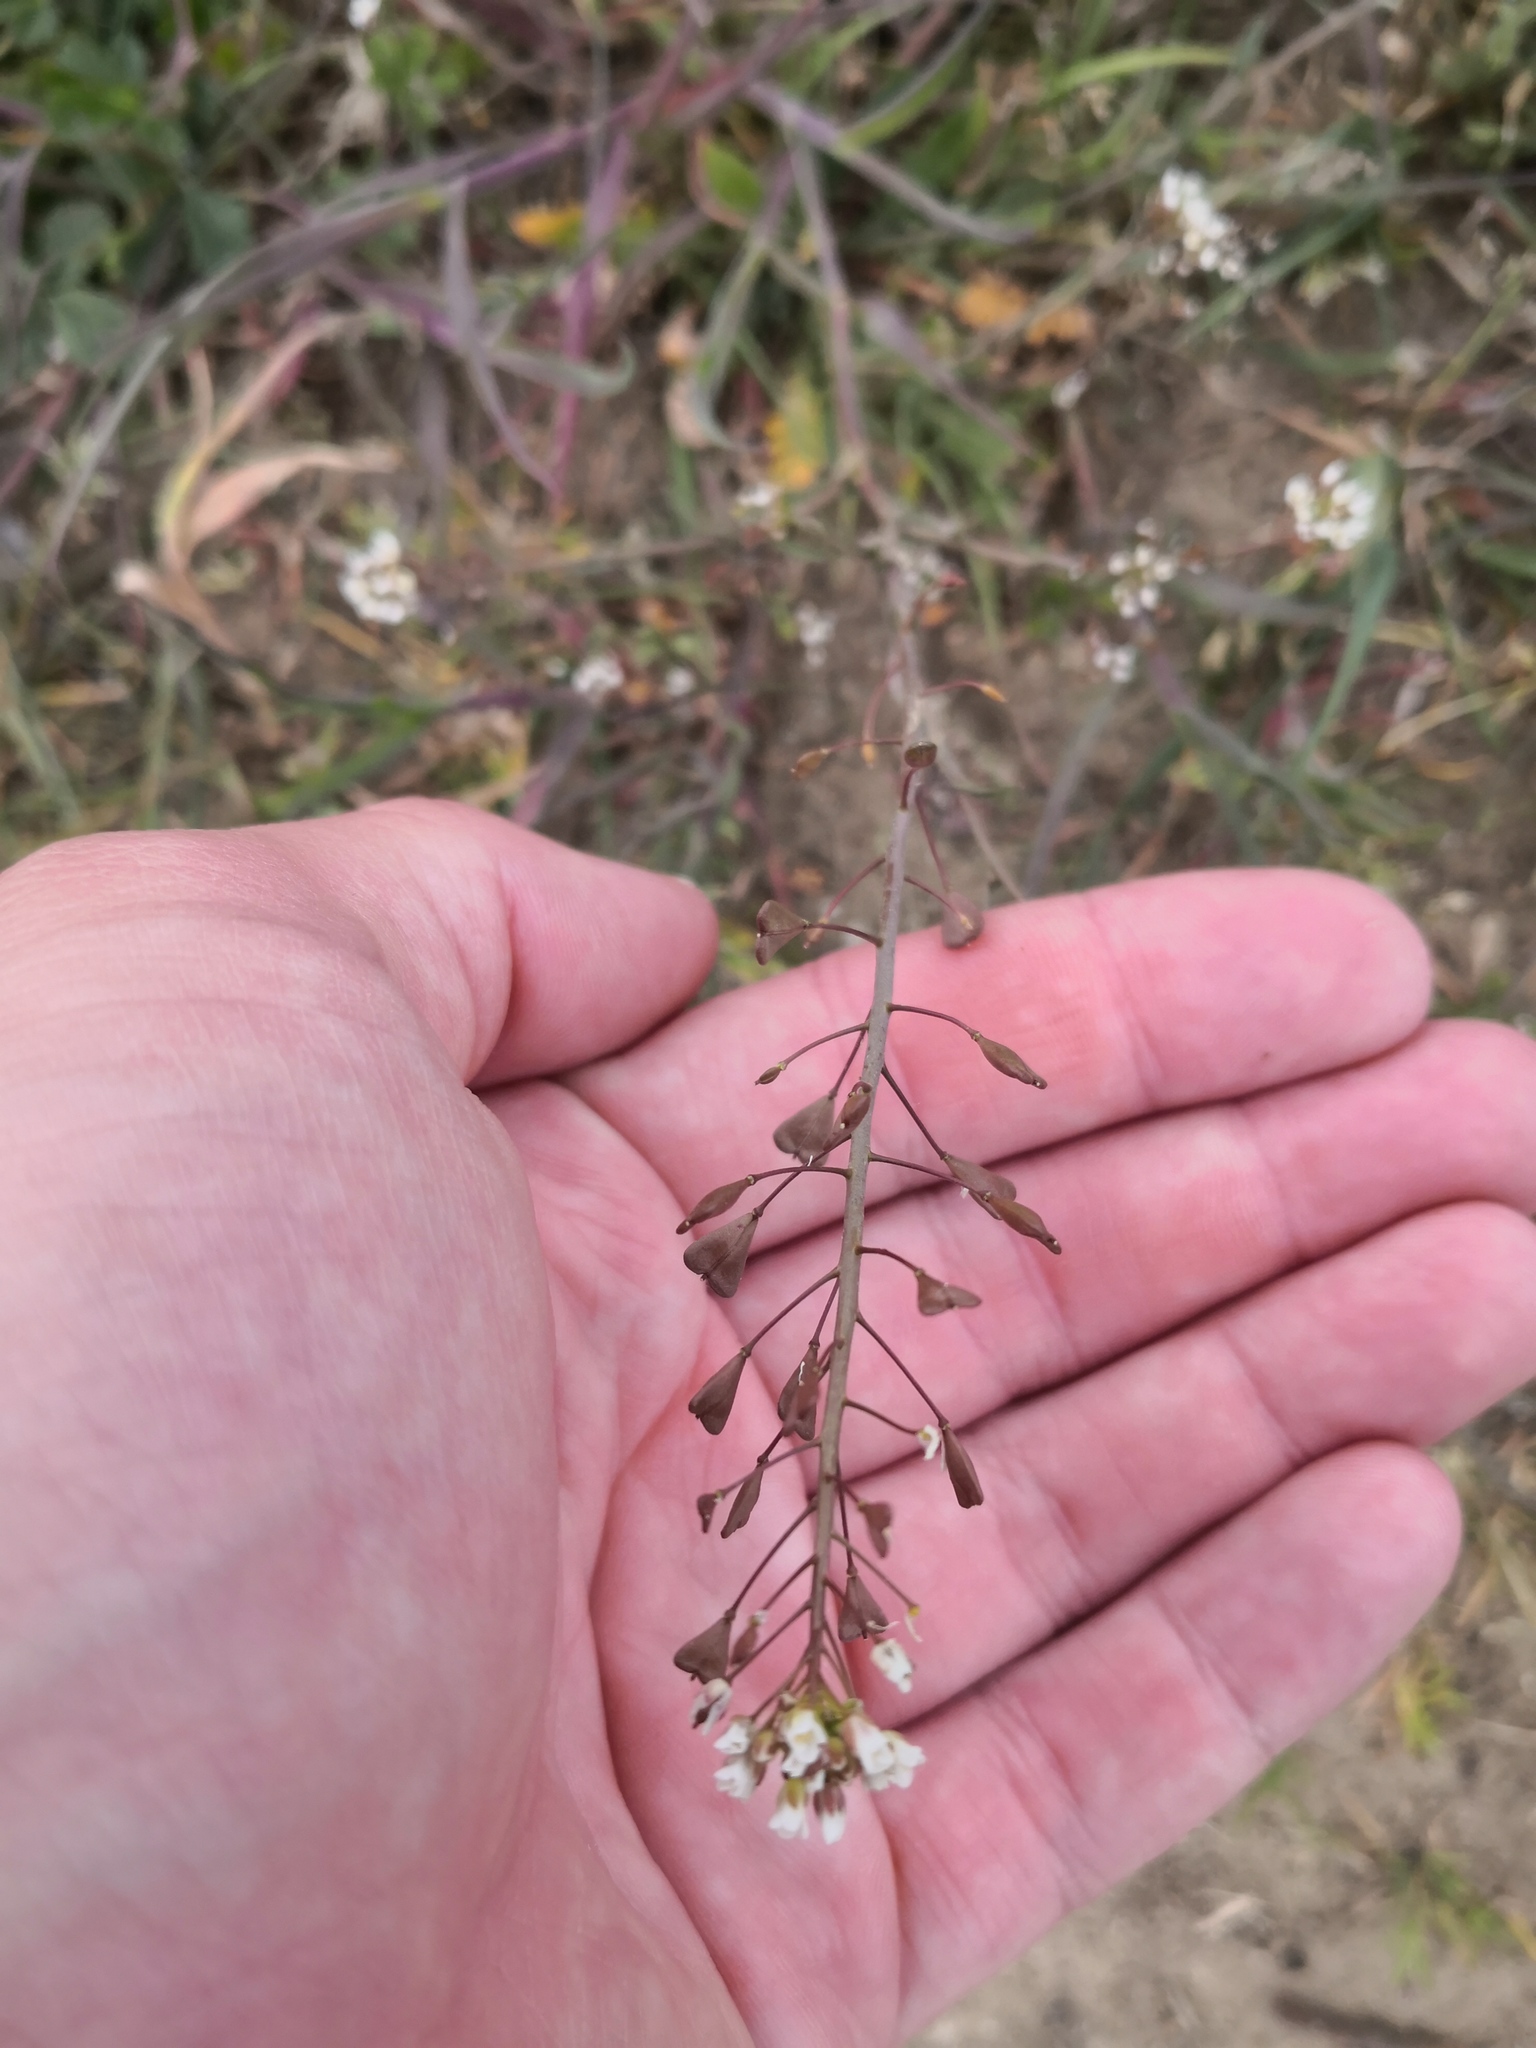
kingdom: Plantae
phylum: Tracheophyta
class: Magnoliopsida
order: Brassicales
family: Brassicaceae
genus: Capsella
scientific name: Capsella bursa-pastoris
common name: Shepherd's purse
